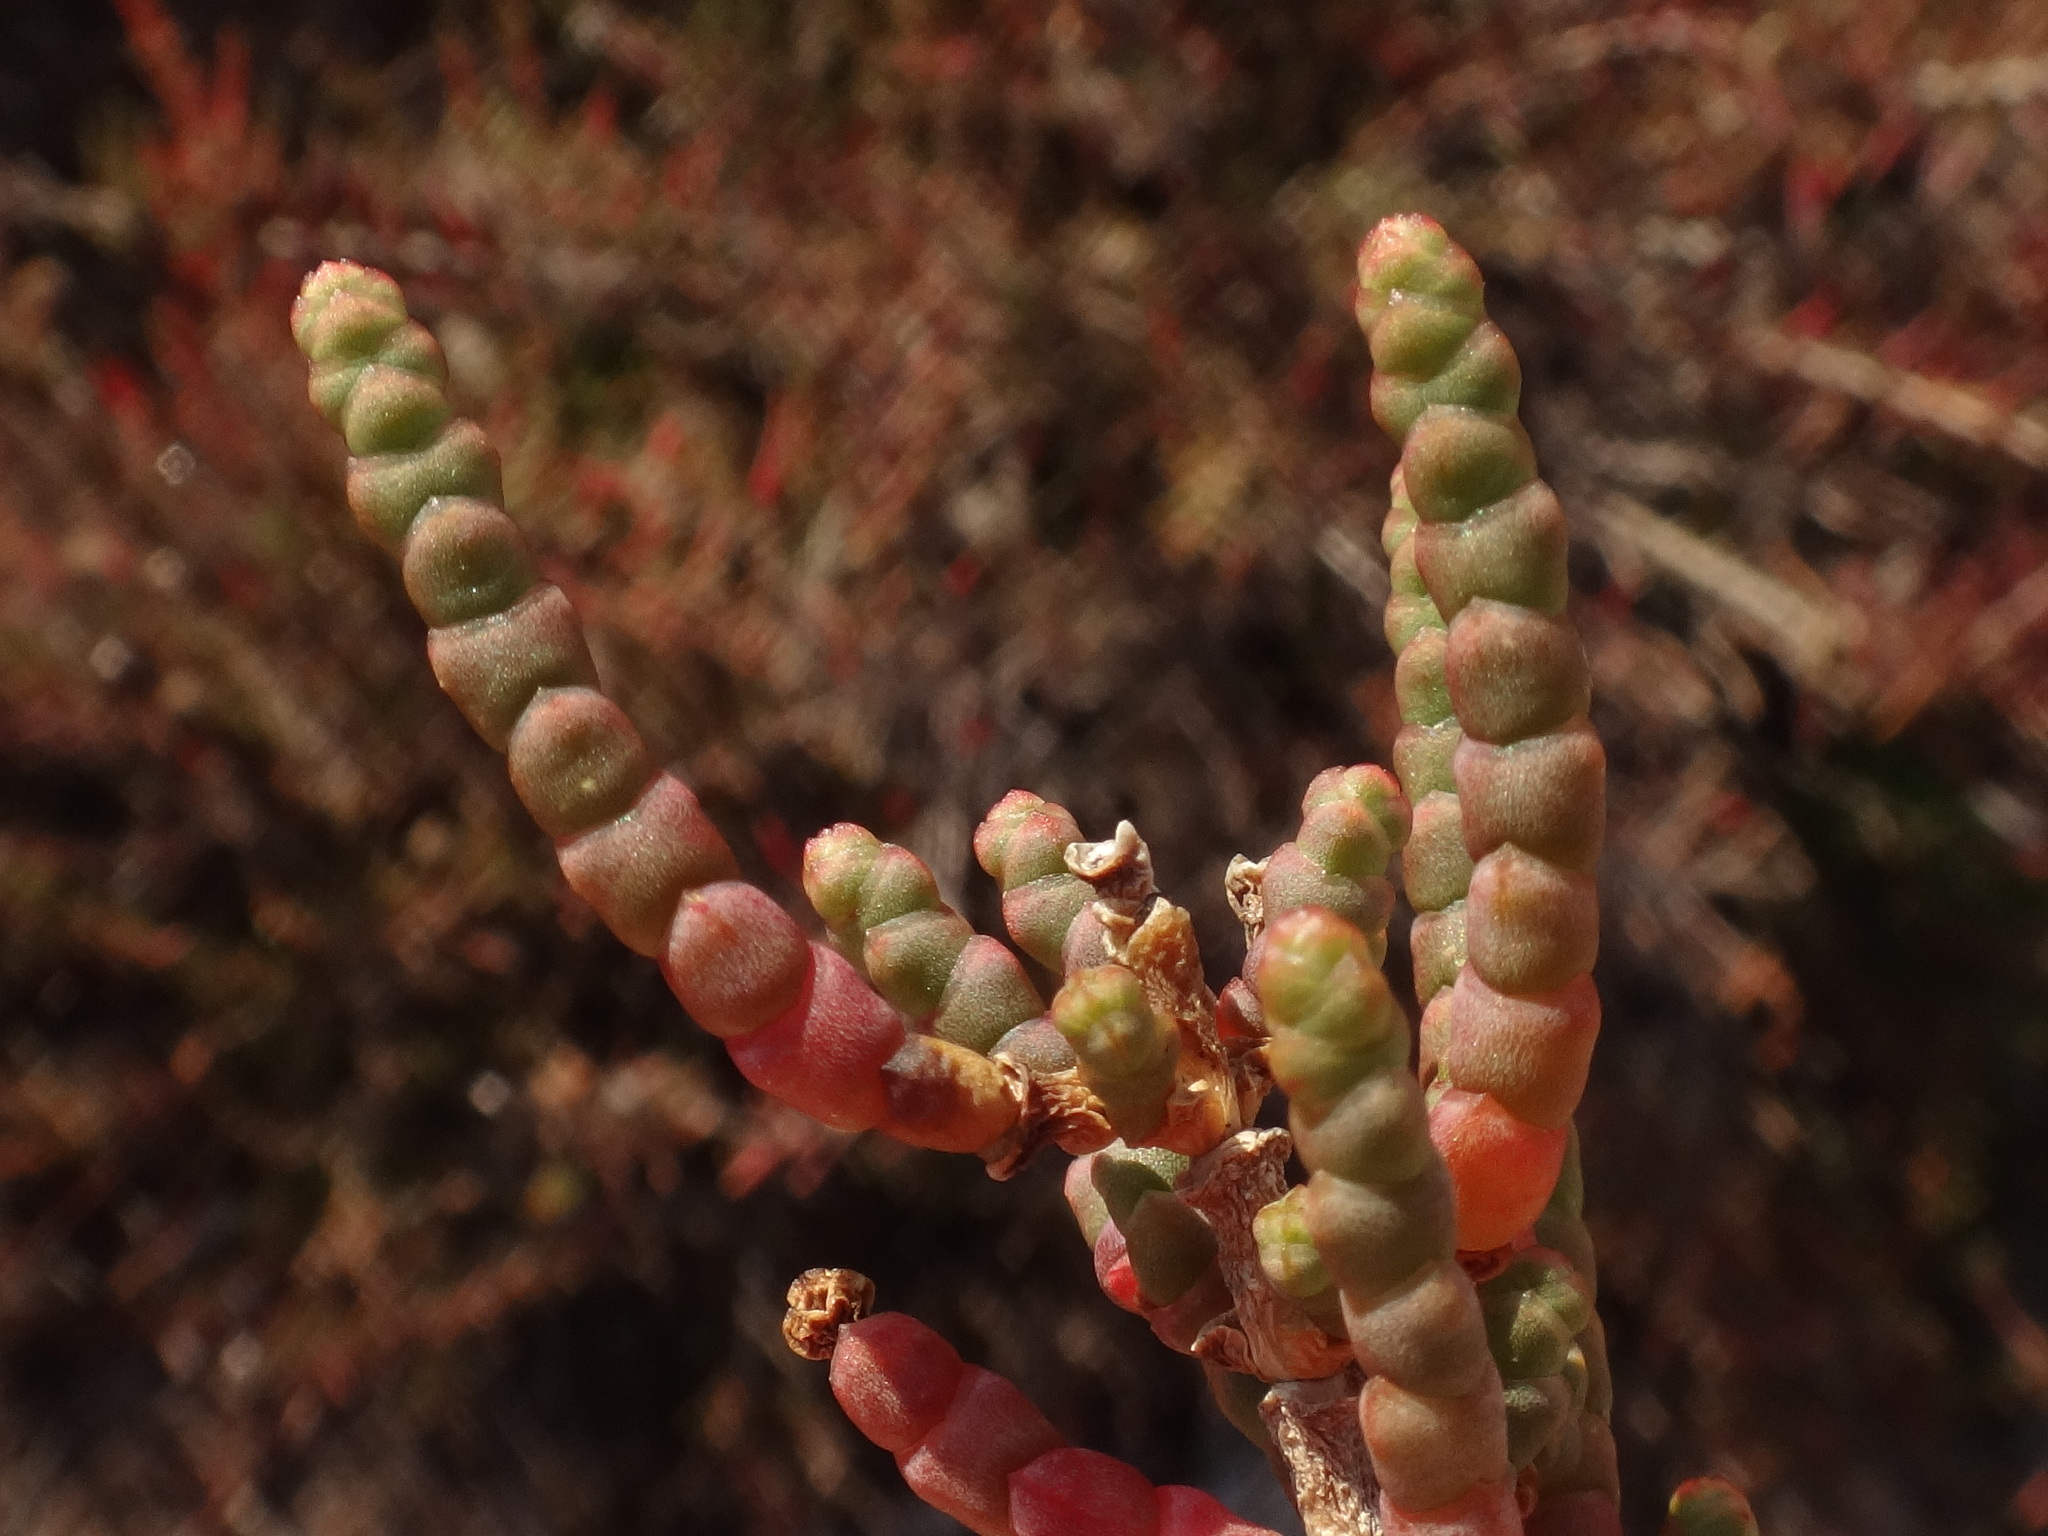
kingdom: Plantae
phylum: Tracheophyta
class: Magnoliopsida
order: Caryophyllales
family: Amaranthaceae
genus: Arthrocaulon
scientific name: Arthrocaulon macrostachyum
